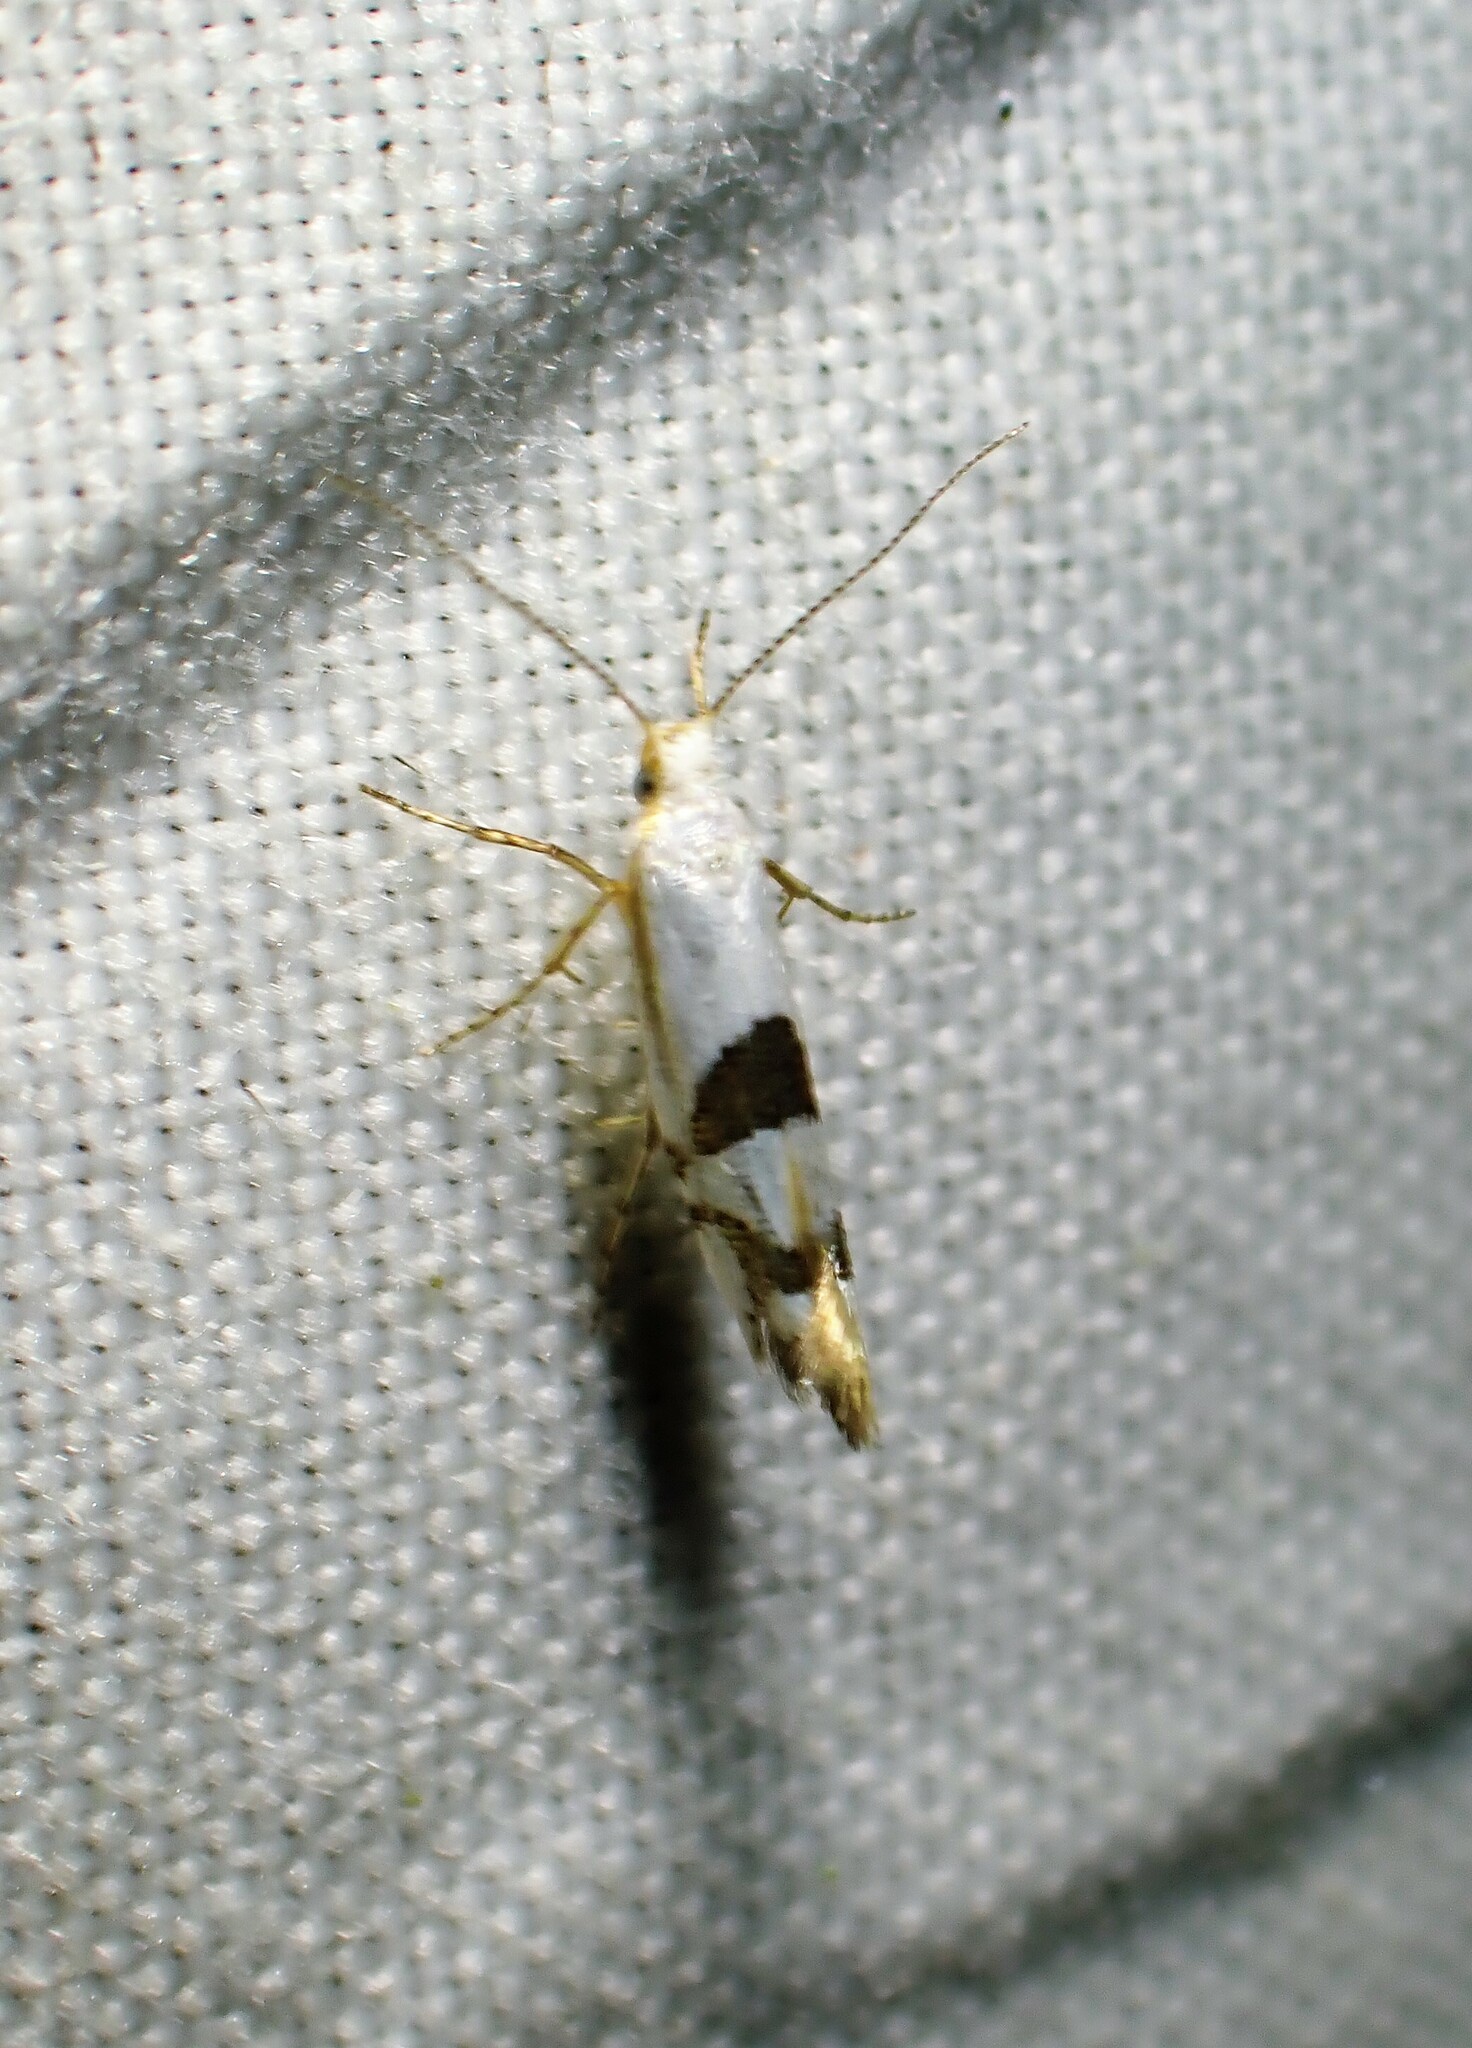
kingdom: Animalia
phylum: Arthropoda
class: Insecta
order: Lepidoptera
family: Argyresthiidae
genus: Argyresthia
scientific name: Argyresthia oreasella
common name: Cherry shoot borer moth
